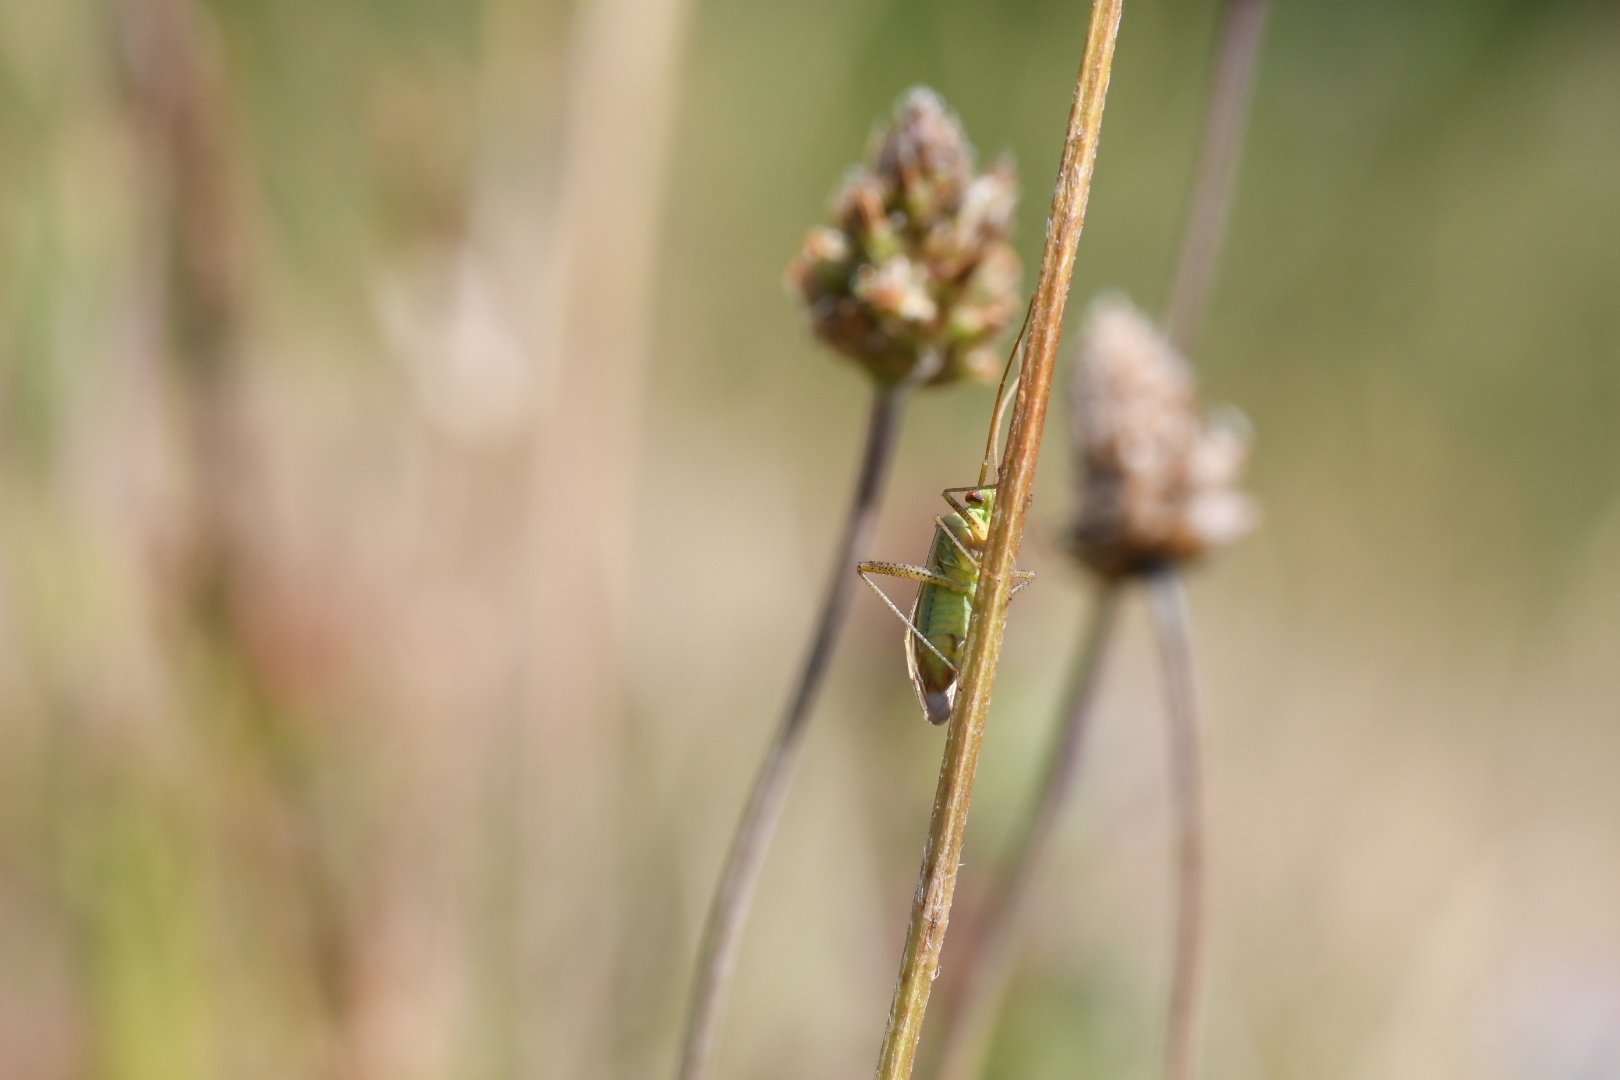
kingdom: Animalia
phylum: Arthropoda
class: Insecta
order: Hemiptera
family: Miridae
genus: Adelphocoris
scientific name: Adelphocoris lineolatus
